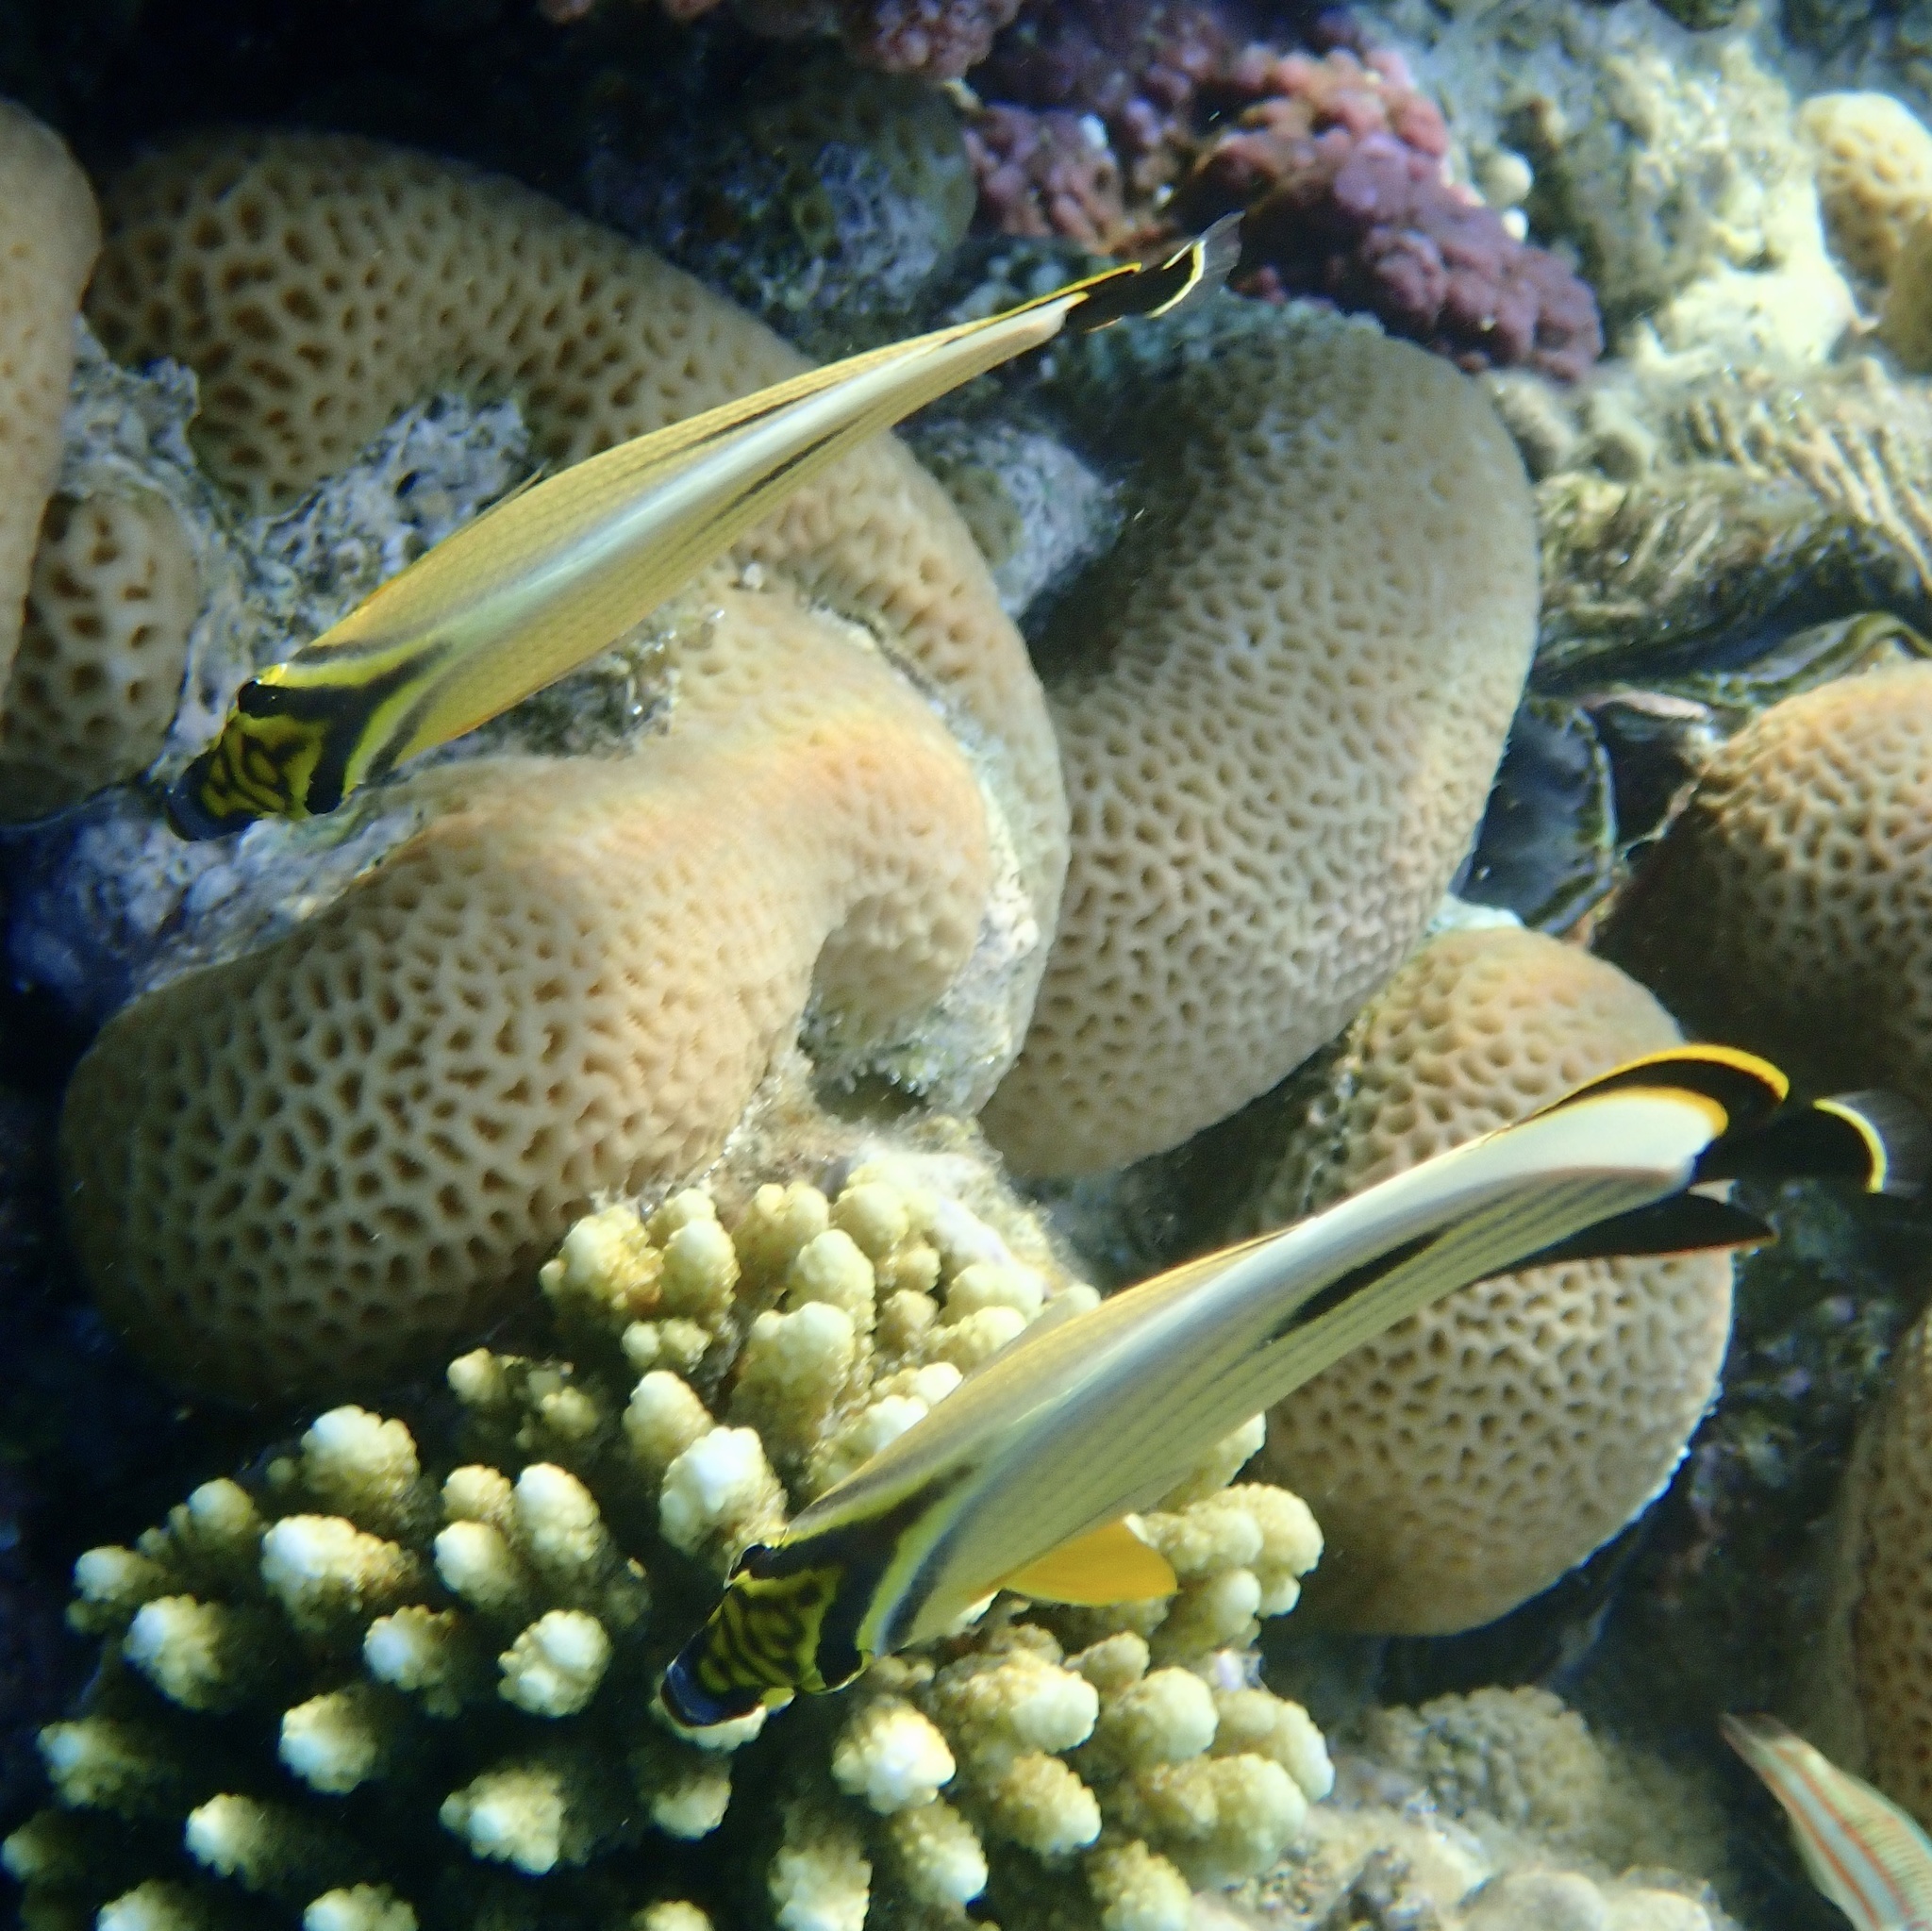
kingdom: Animalia
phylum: Chordata
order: Perciformes
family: Chaetodontidae
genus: Chaetodon
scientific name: Chaetodon austriacus
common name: Exquisite butterflyfish
